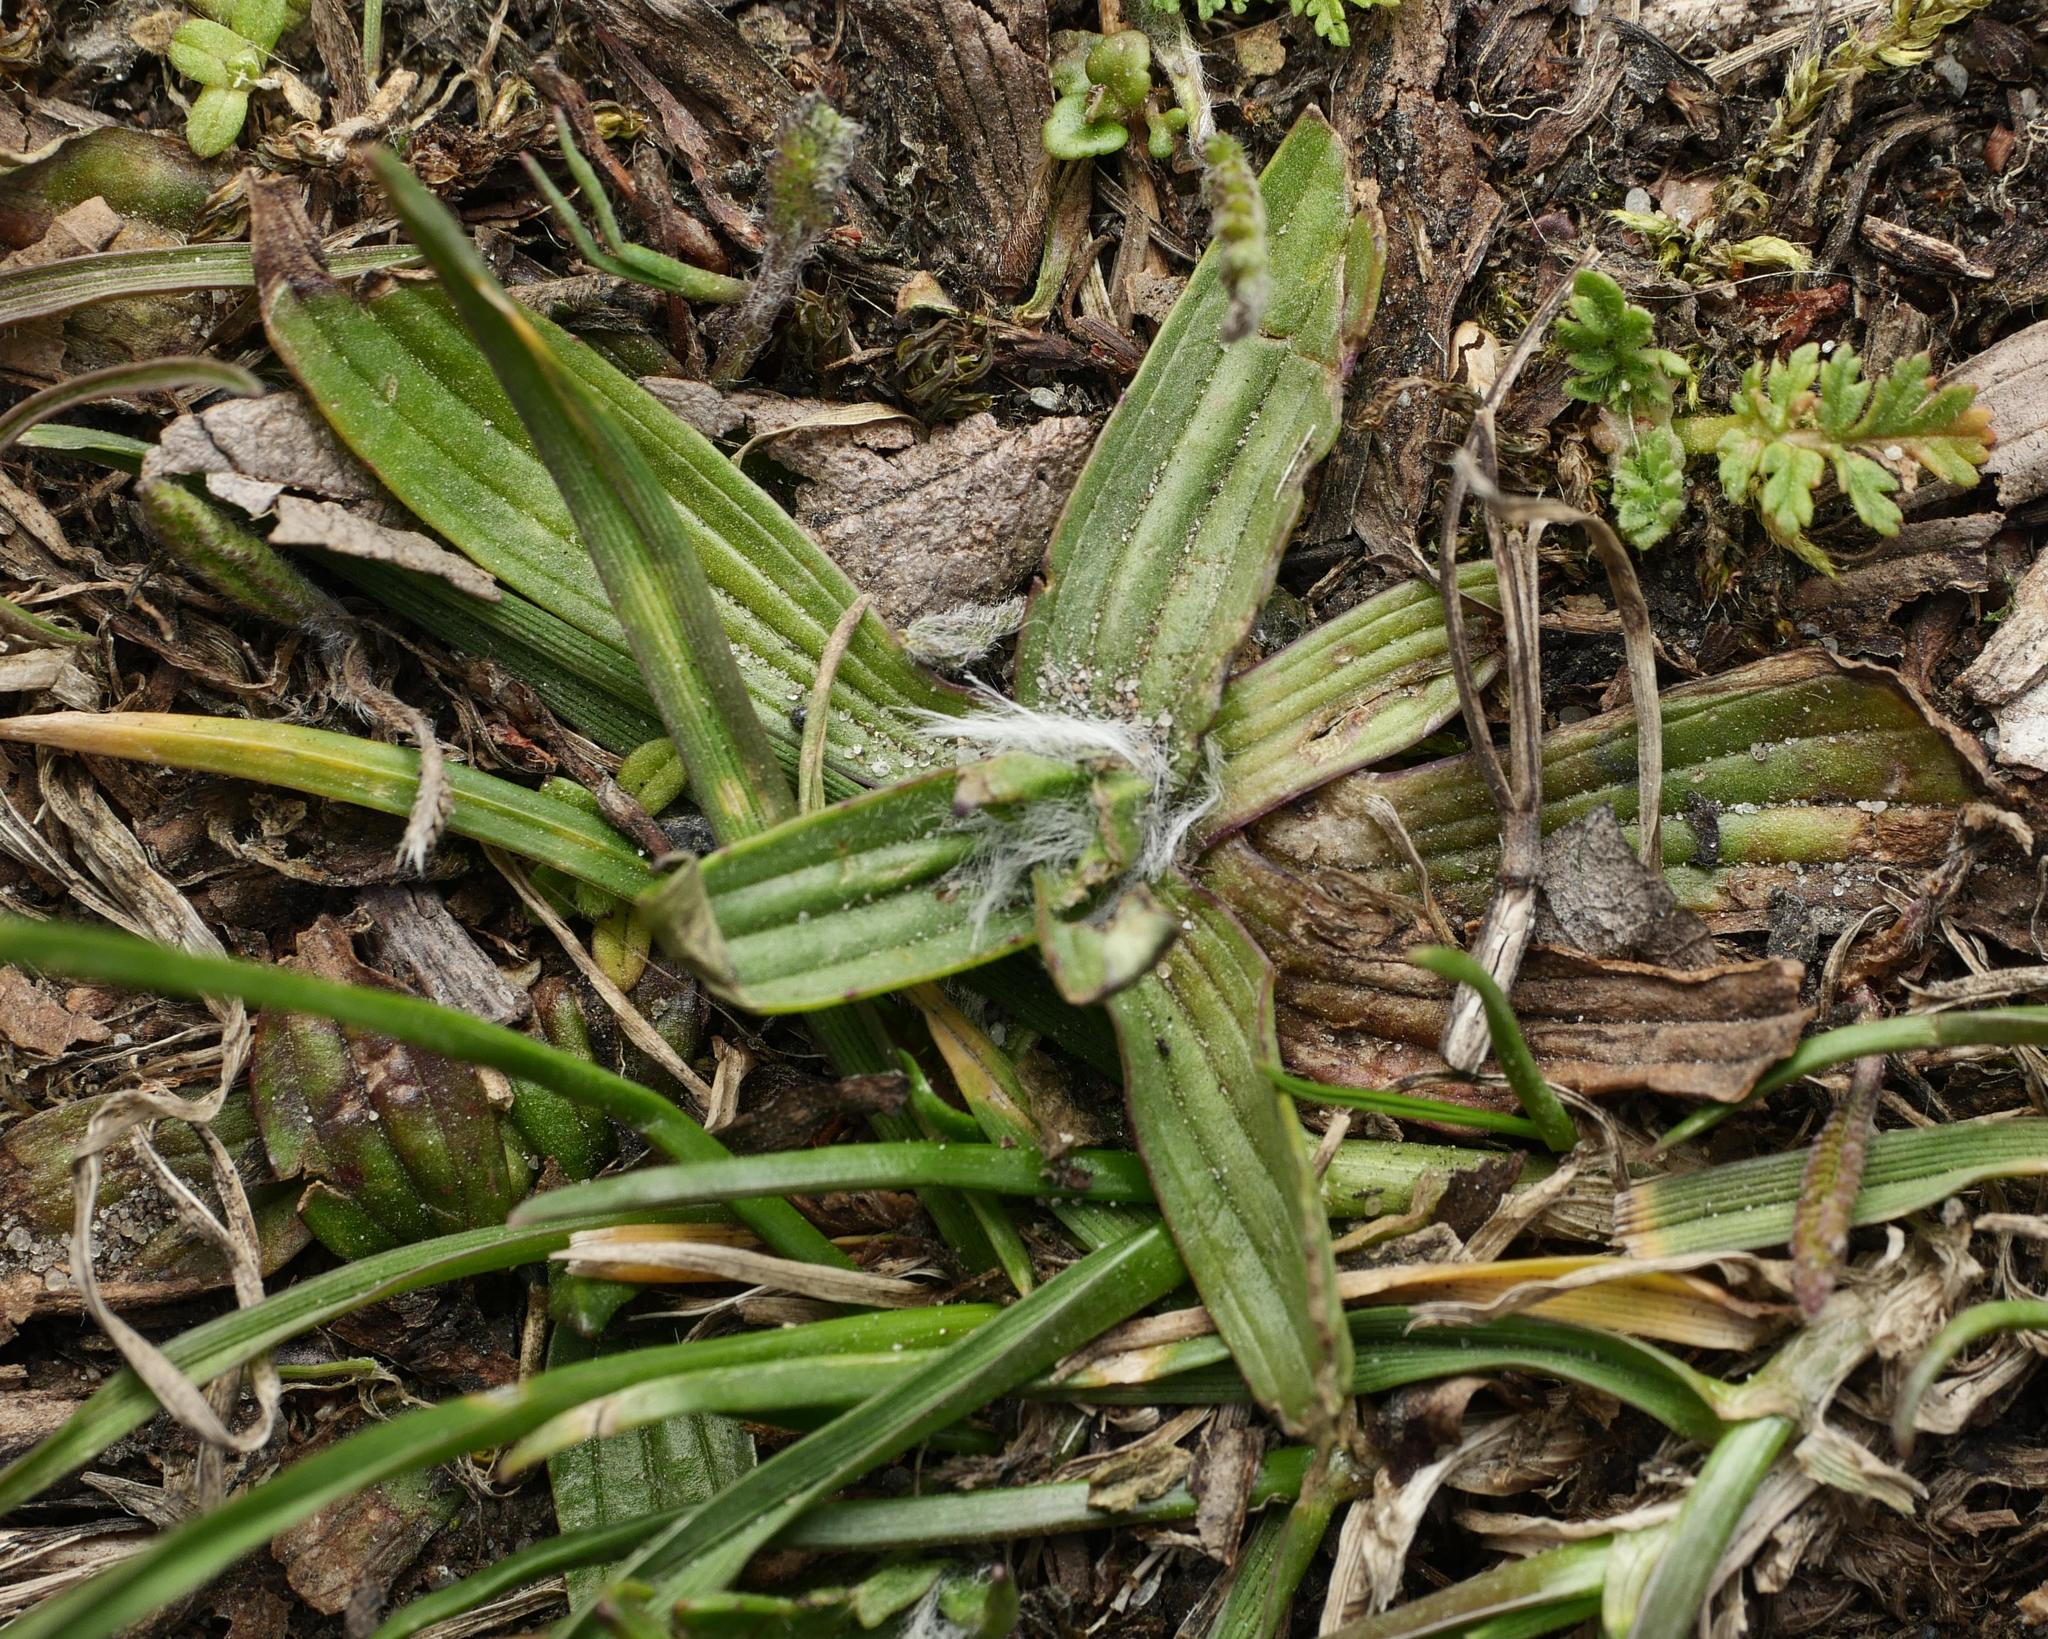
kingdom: Plantae
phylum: Tracheophyta
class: Magnoliopsida
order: Lamiales
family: Plantaginaceae
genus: Plantago
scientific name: Plantago lanceolata
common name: Ribwort plantain
